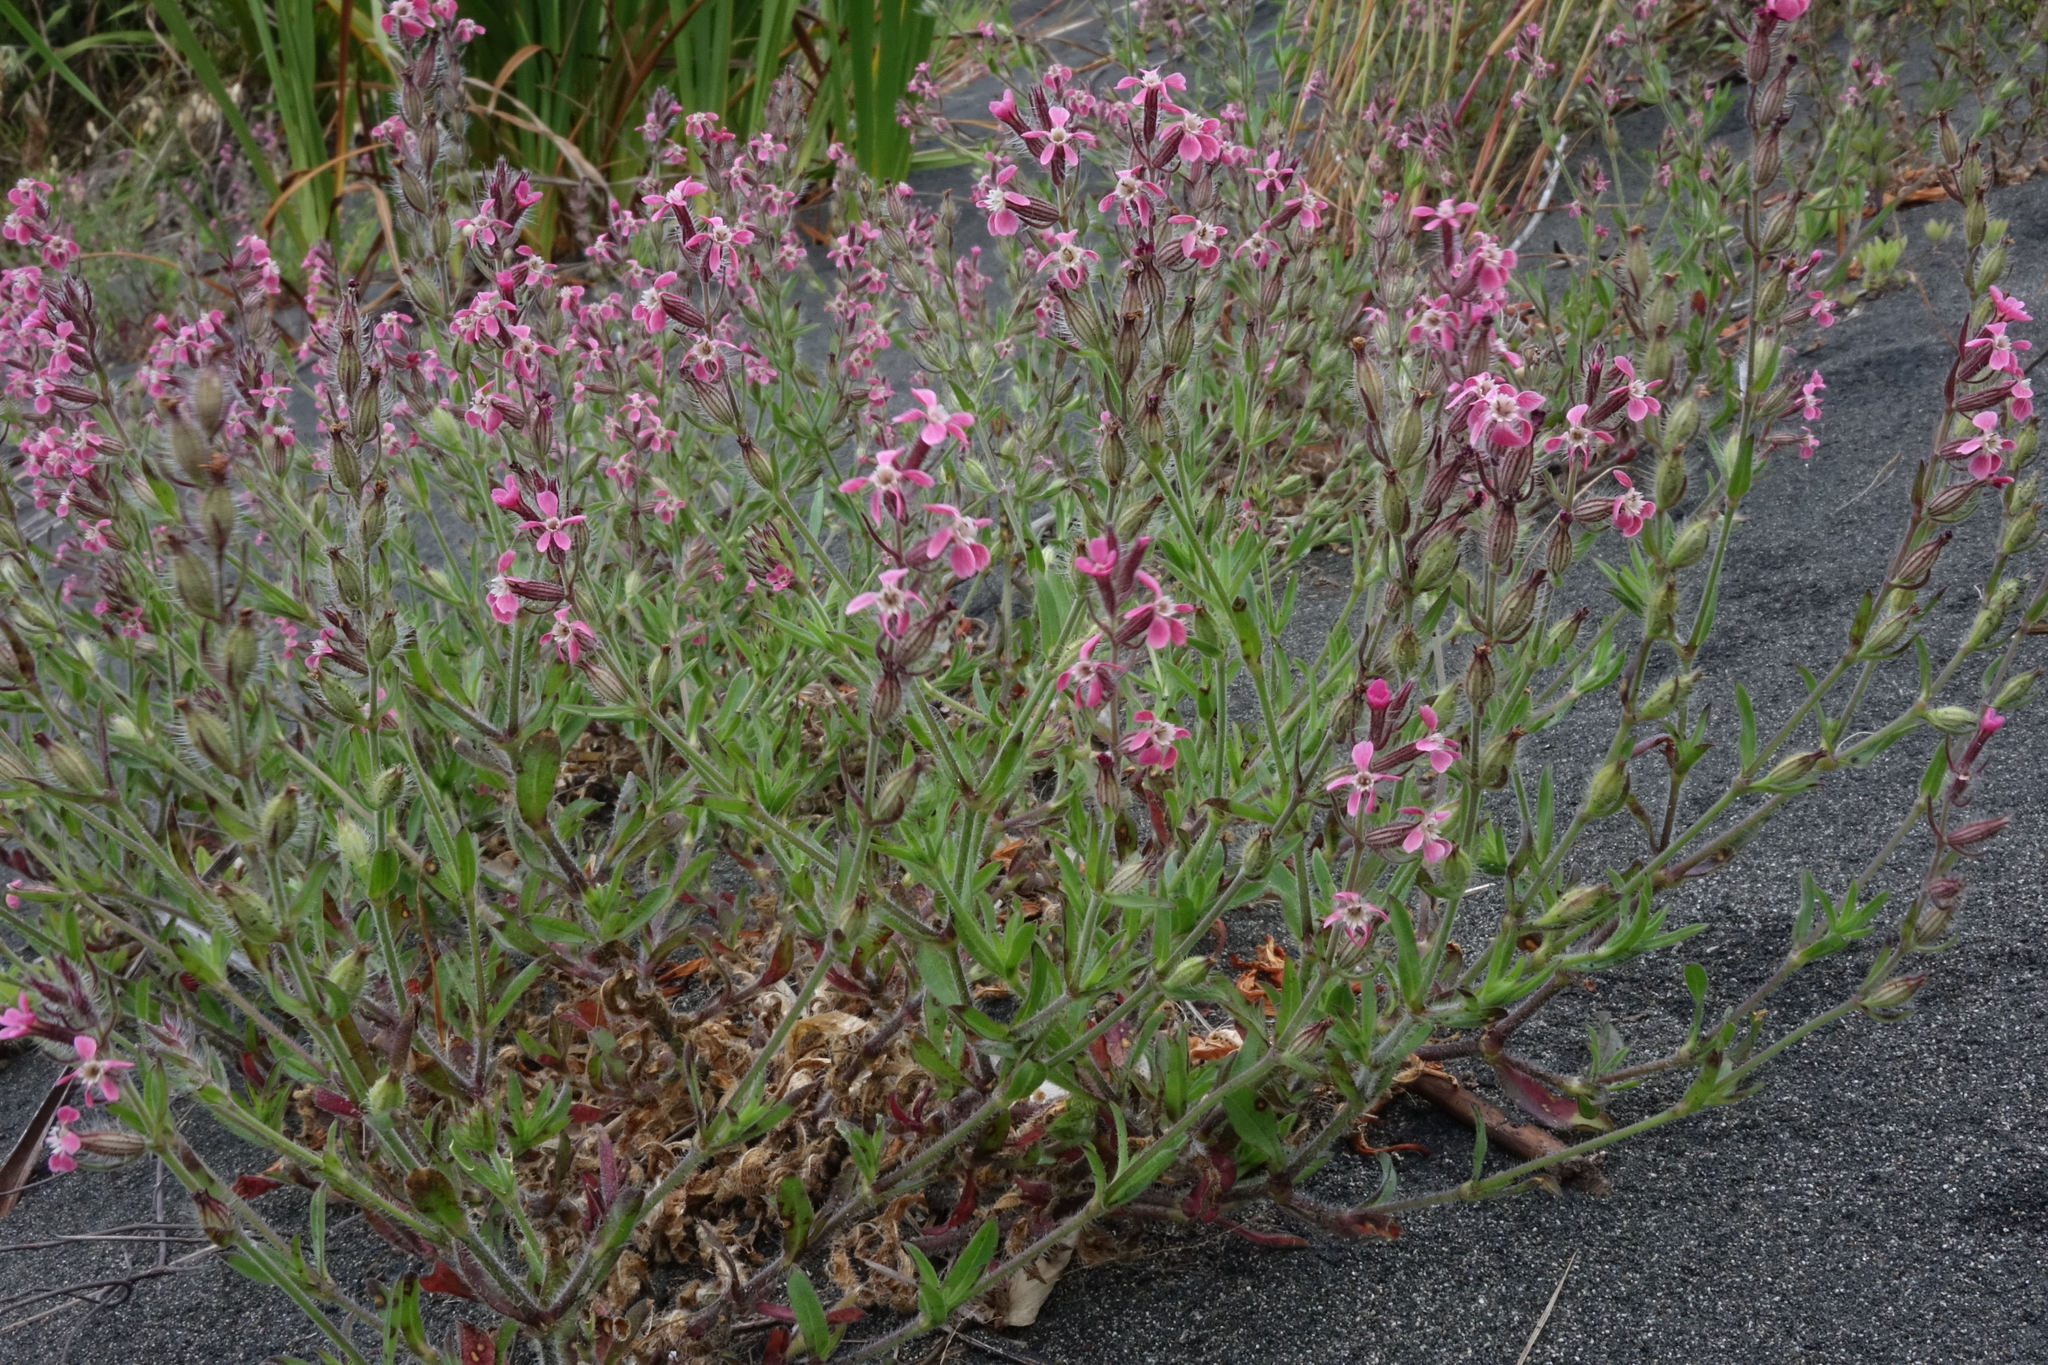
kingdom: Plantae
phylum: Tracheophyta
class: Magnoliopsida
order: Caryophyllales
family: Caryophyllaceae
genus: Silene
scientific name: Silene gallica
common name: Small-flowered catchfly
